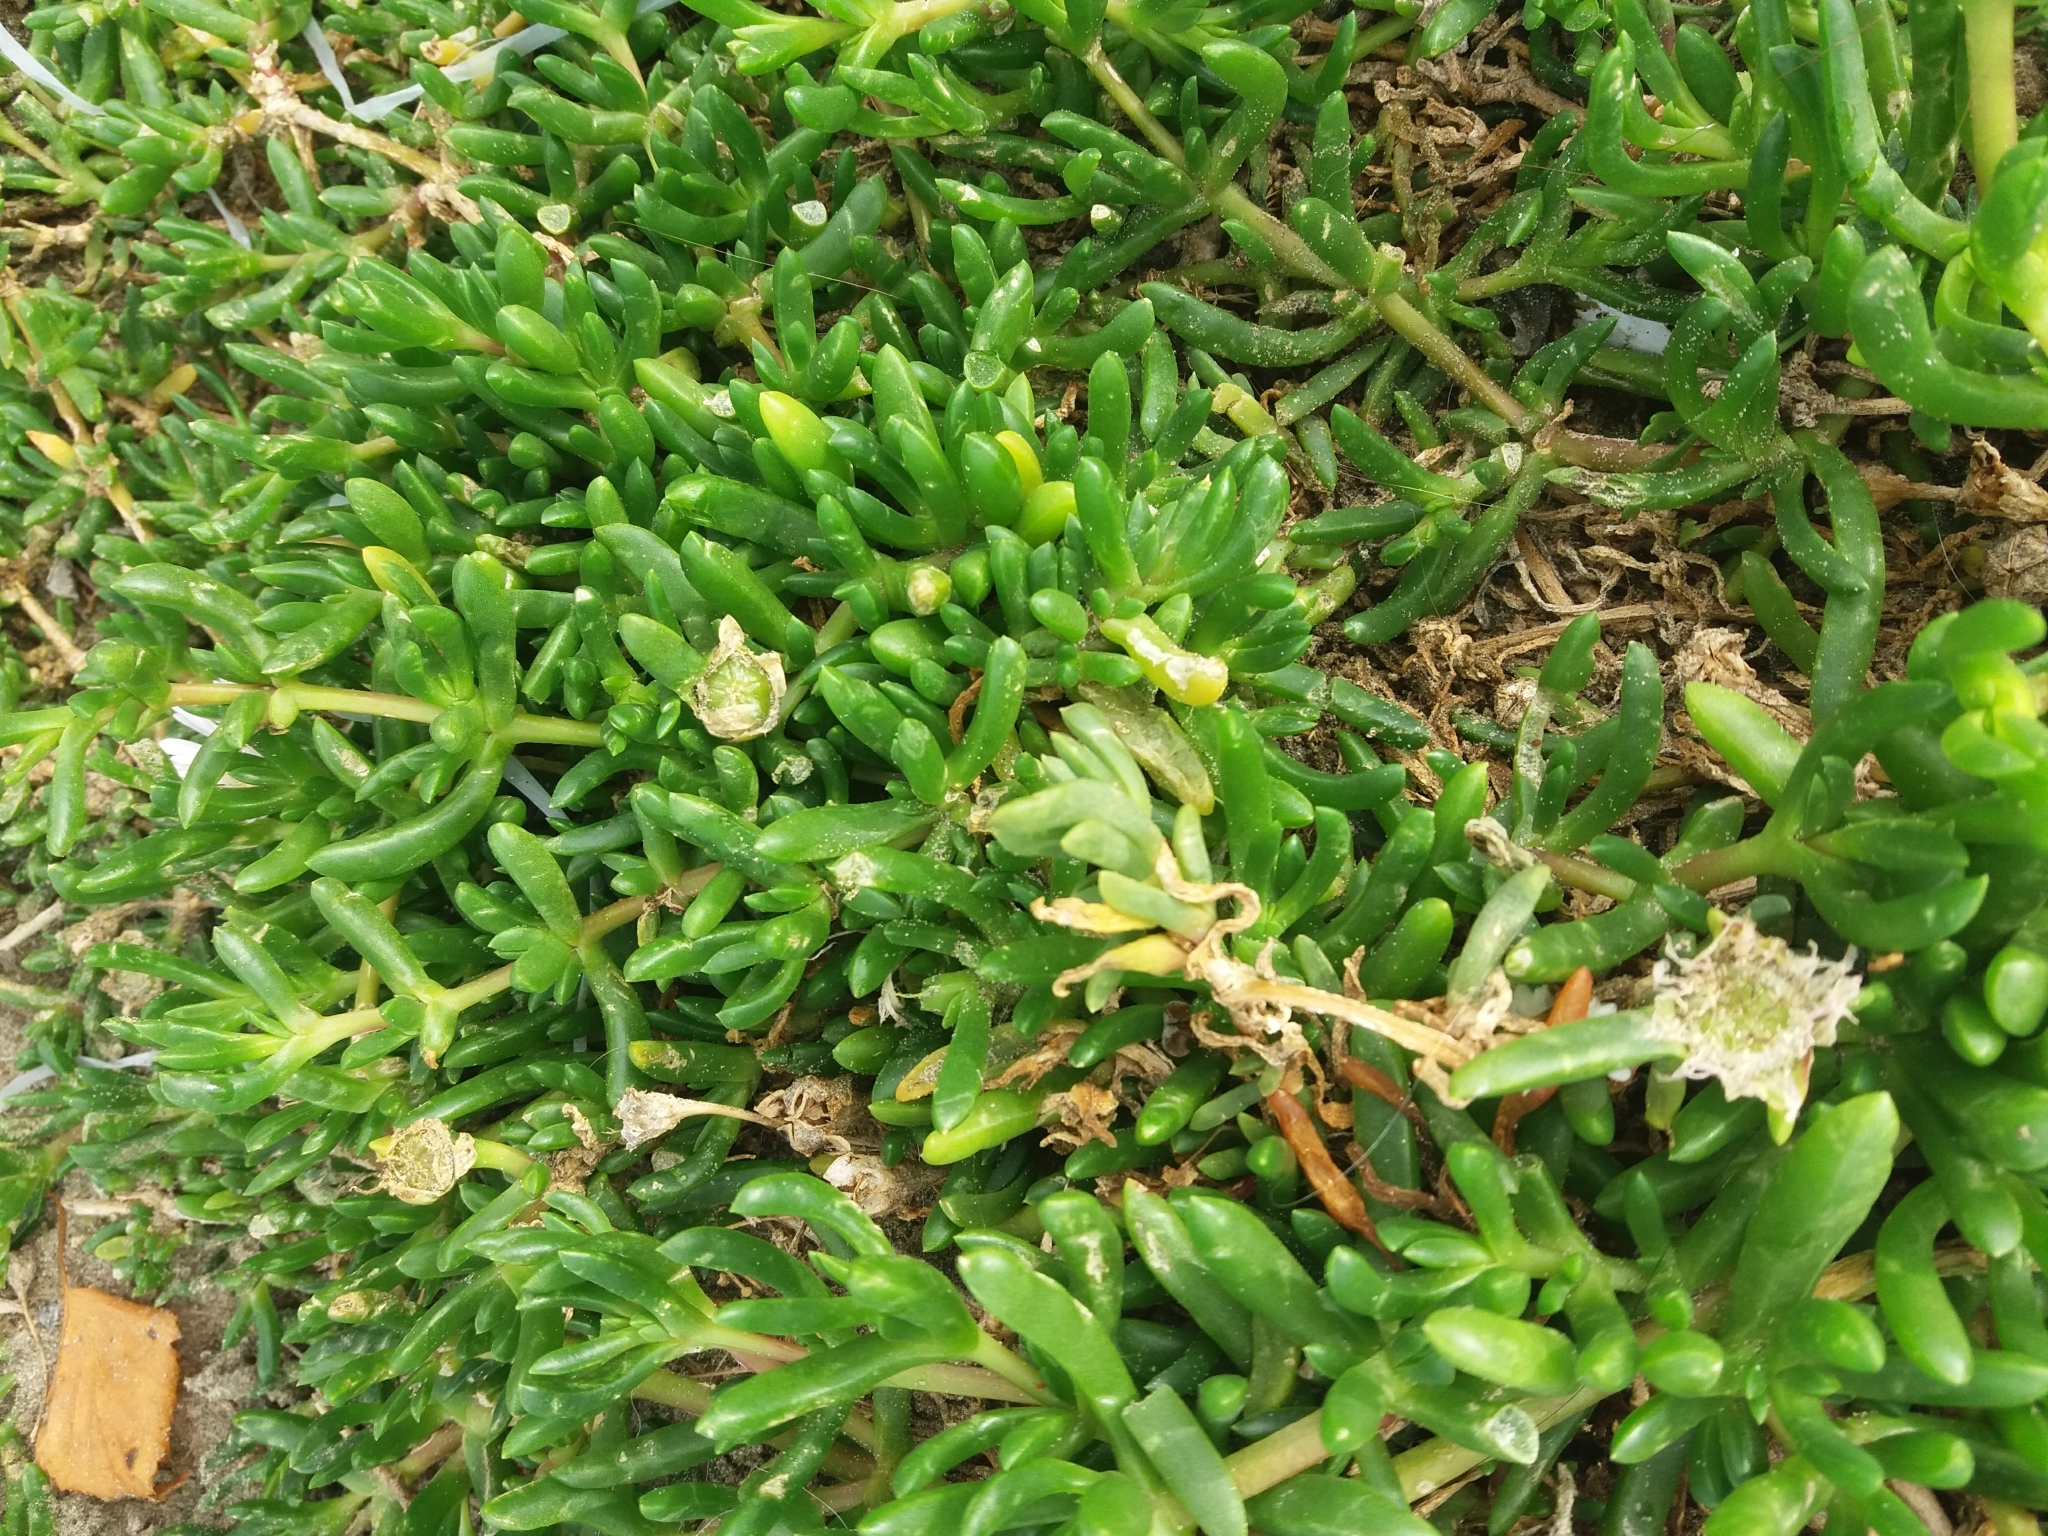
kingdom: Plantae
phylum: Tracheophyta
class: Magnoliopsida
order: Caryophyllales
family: Aizoaceae
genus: Disphyma
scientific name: Disphyma australe
